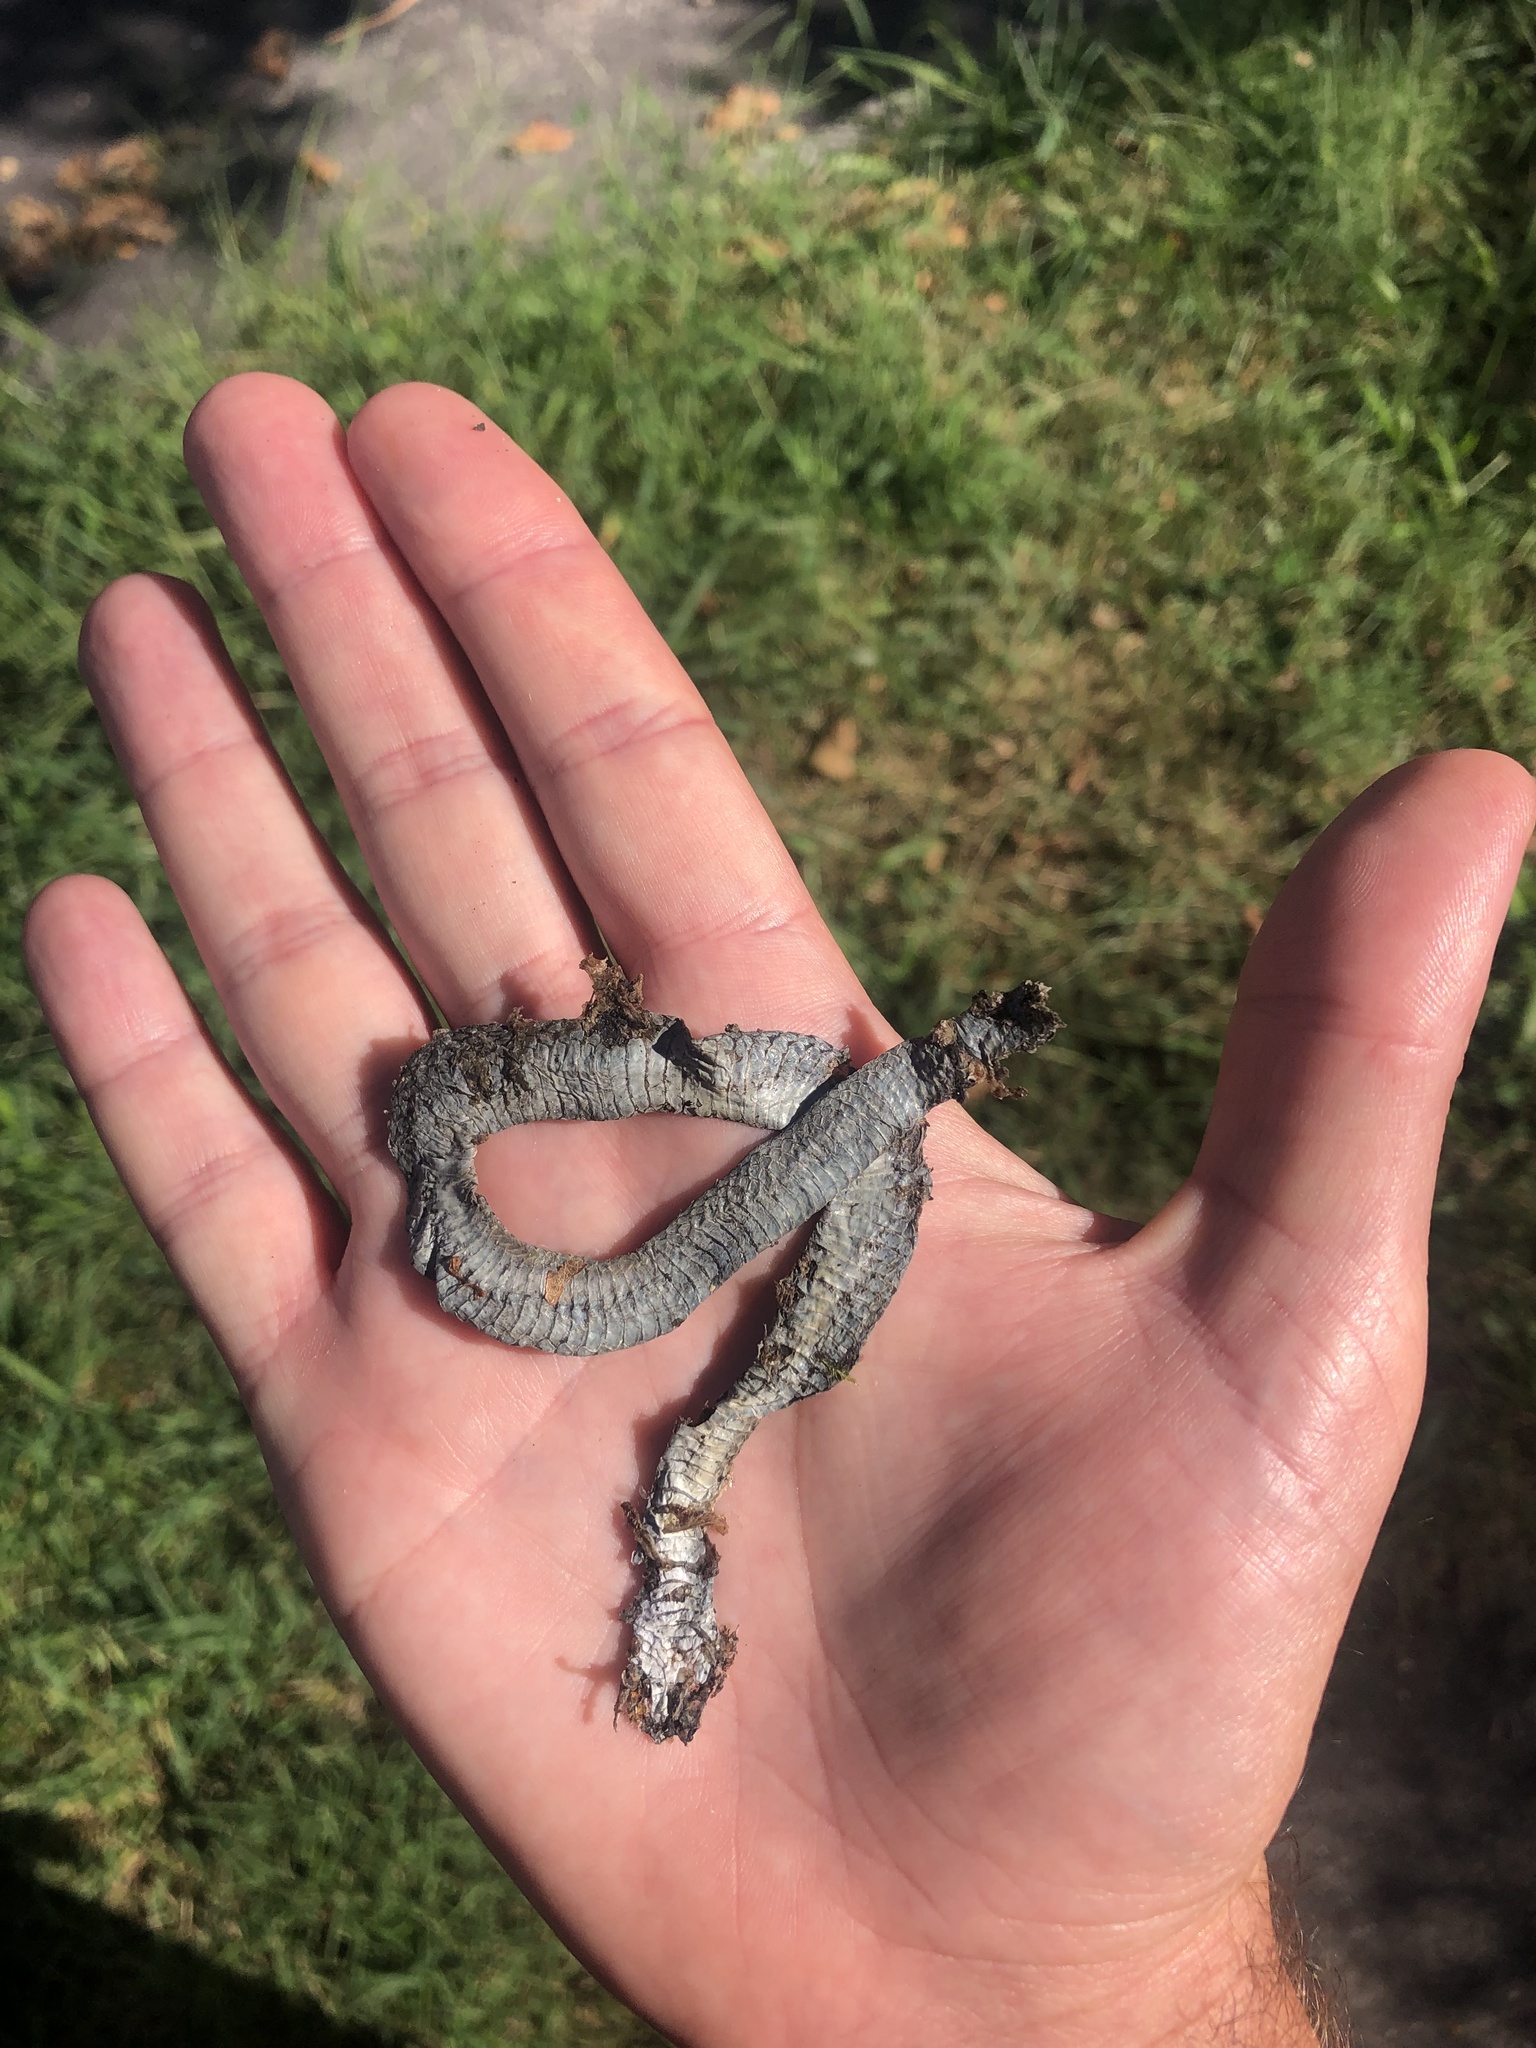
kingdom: Animalia
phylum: Chordata
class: Squamata
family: Colubridae
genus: Storeria
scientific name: Storeria dekayi
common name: (dekay’s) brown snake
